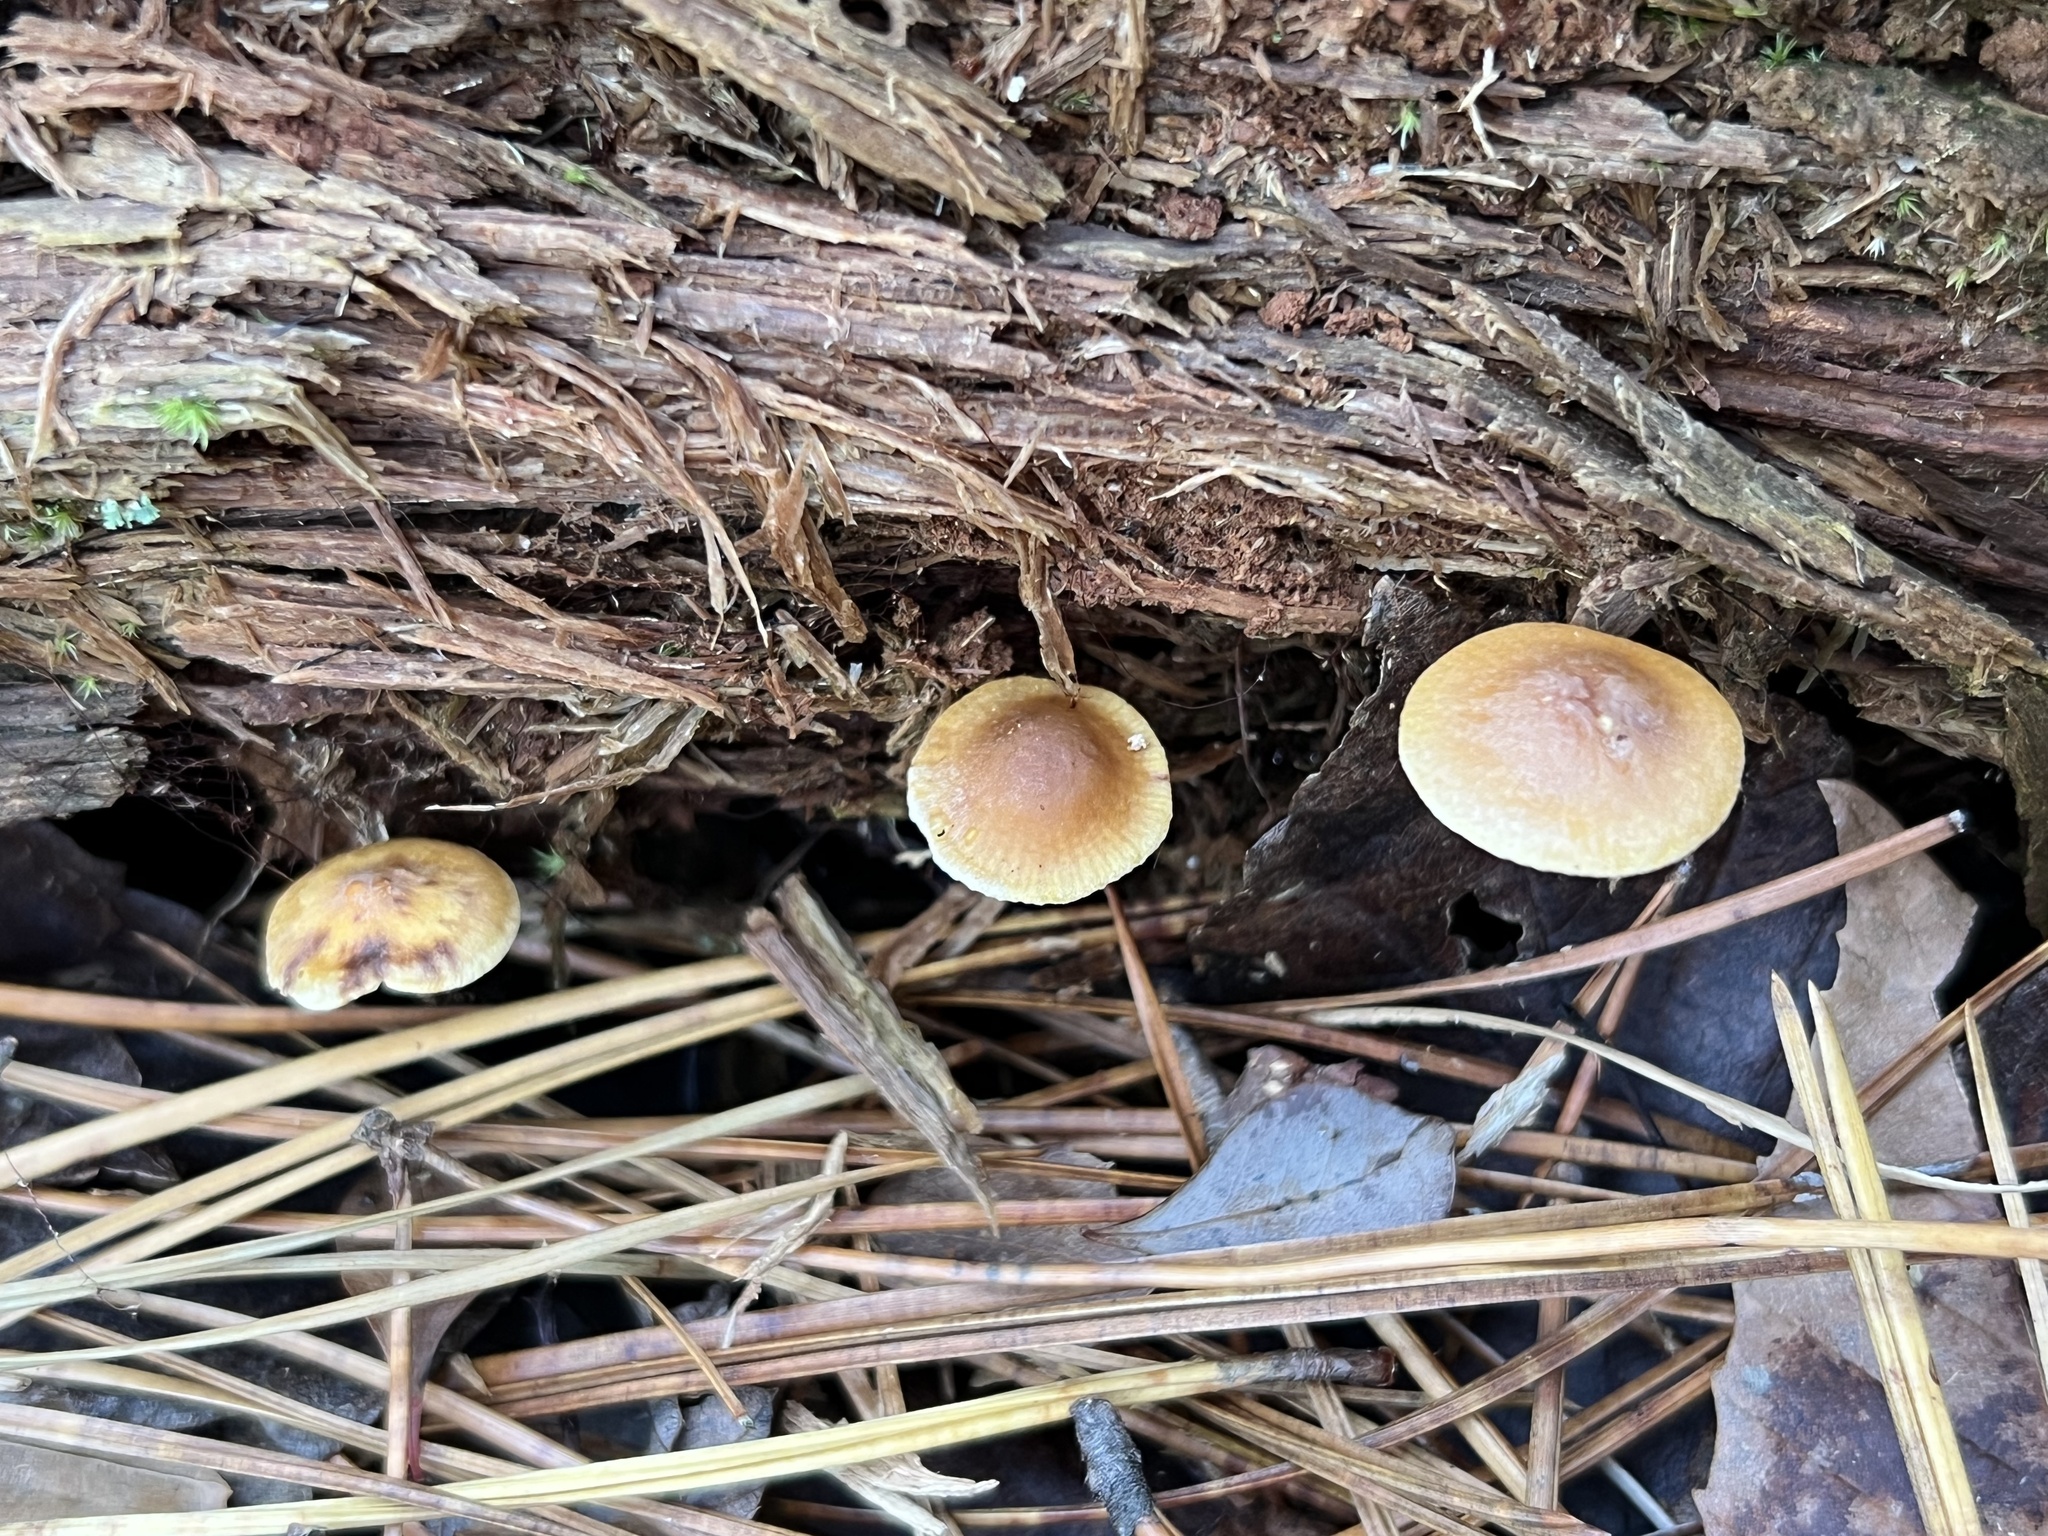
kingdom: Fungi
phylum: Basidiomycota
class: Agaricomycetes
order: Agaricales
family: Mycenaceae
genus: Xeromphalina
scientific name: Xeromphalina cauticinalis
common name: Pinelitter gingertail
